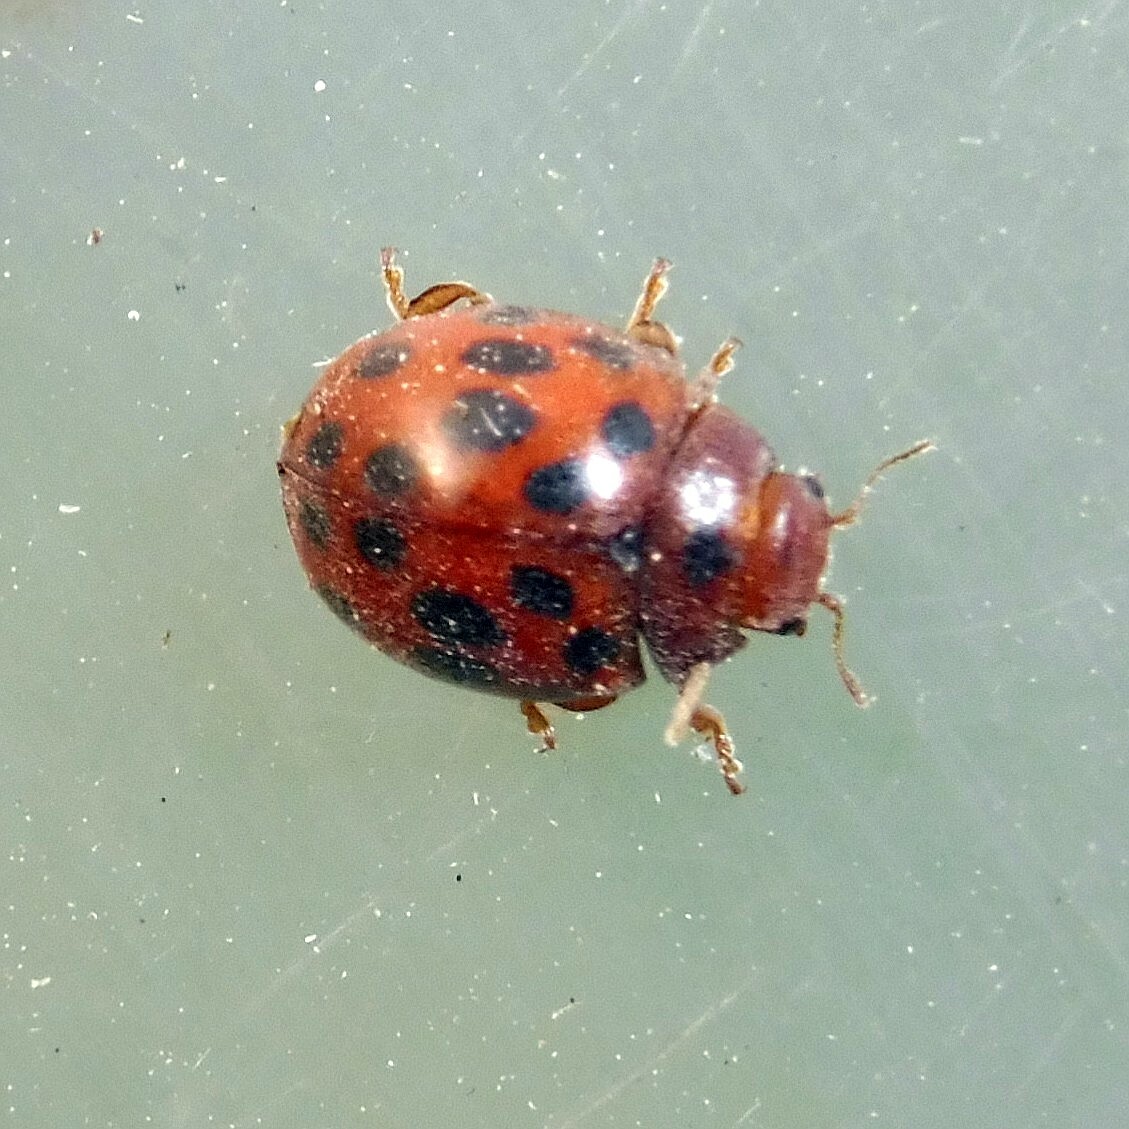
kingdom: Animalia
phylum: Arthropoda
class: Insecta
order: Coleoptera
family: Coccinellidae
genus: Subcoccinella
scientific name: Subcoccinella vigintiquatuorpunctata
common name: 24-spot ladybird
